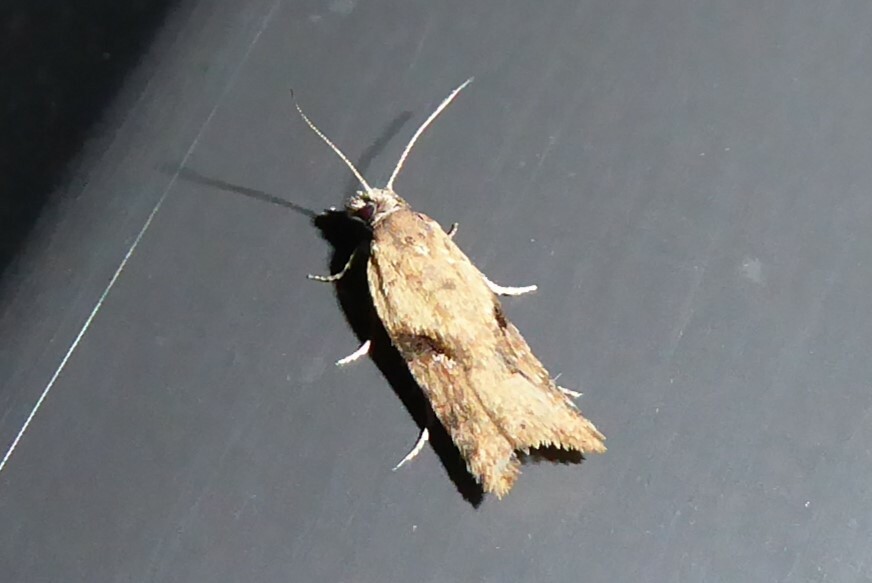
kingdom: Animalia
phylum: Arthropoda
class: Insecta
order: Lepidoptera
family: Tortricidae
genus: Capua
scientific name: Capua semiferana
